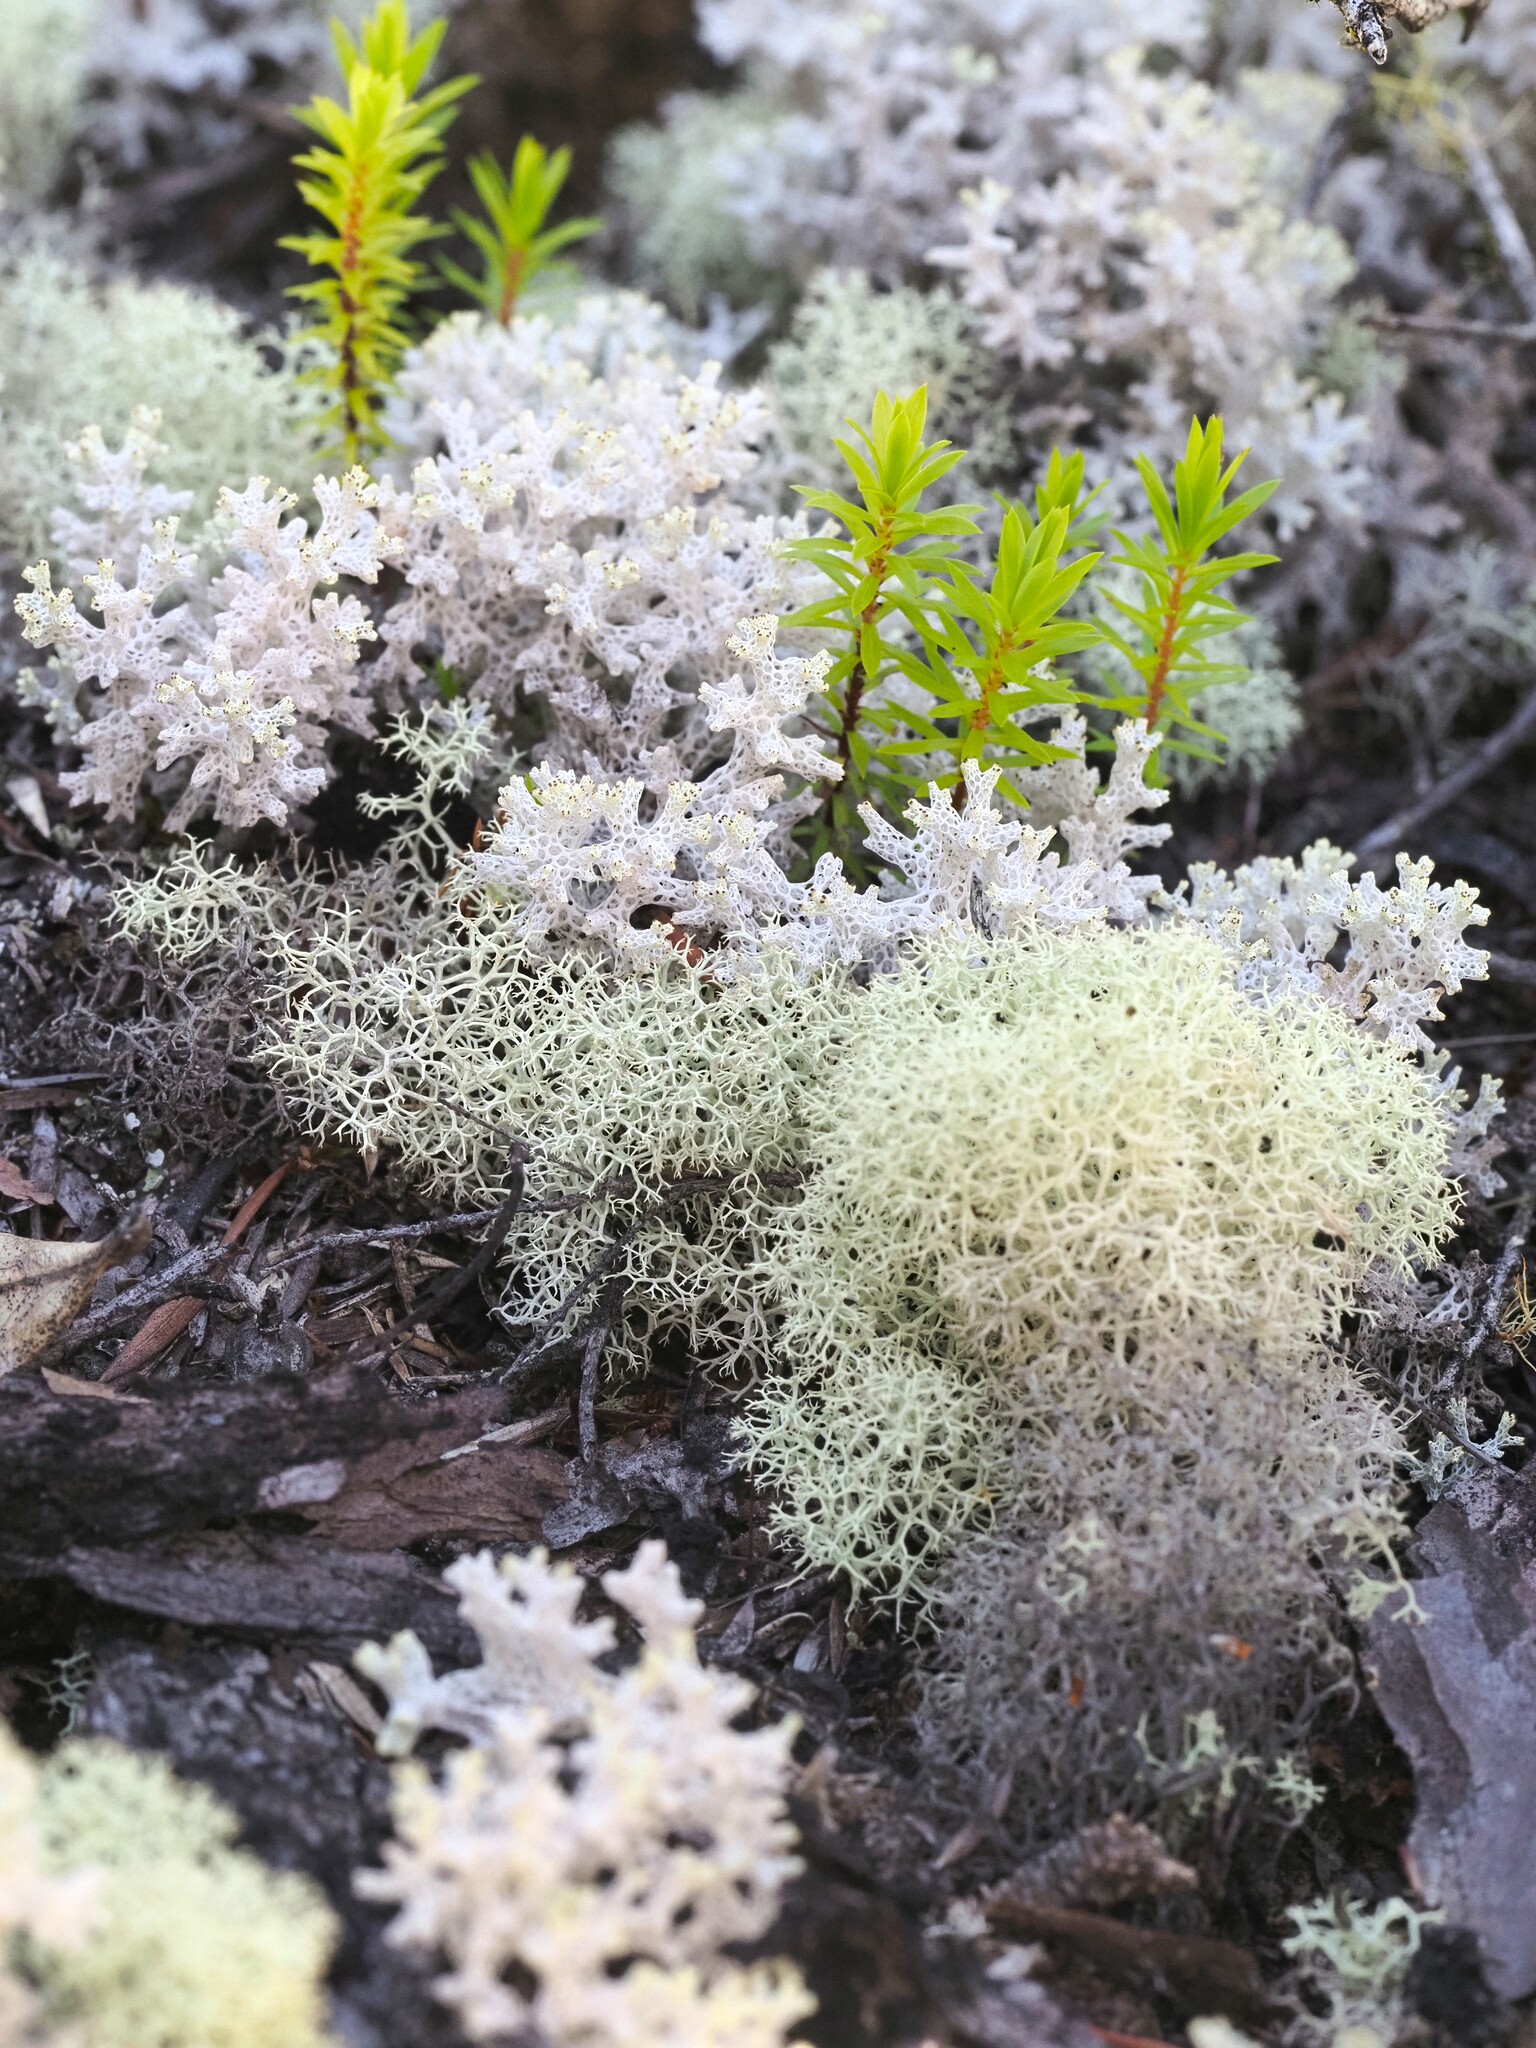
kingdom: Fungi
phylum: Ascomycota
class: Lecanoromycetes
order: Lecanorales
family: Cladoniaceae
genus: Pulchrocladia
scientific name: Pulchrocladia retipora
